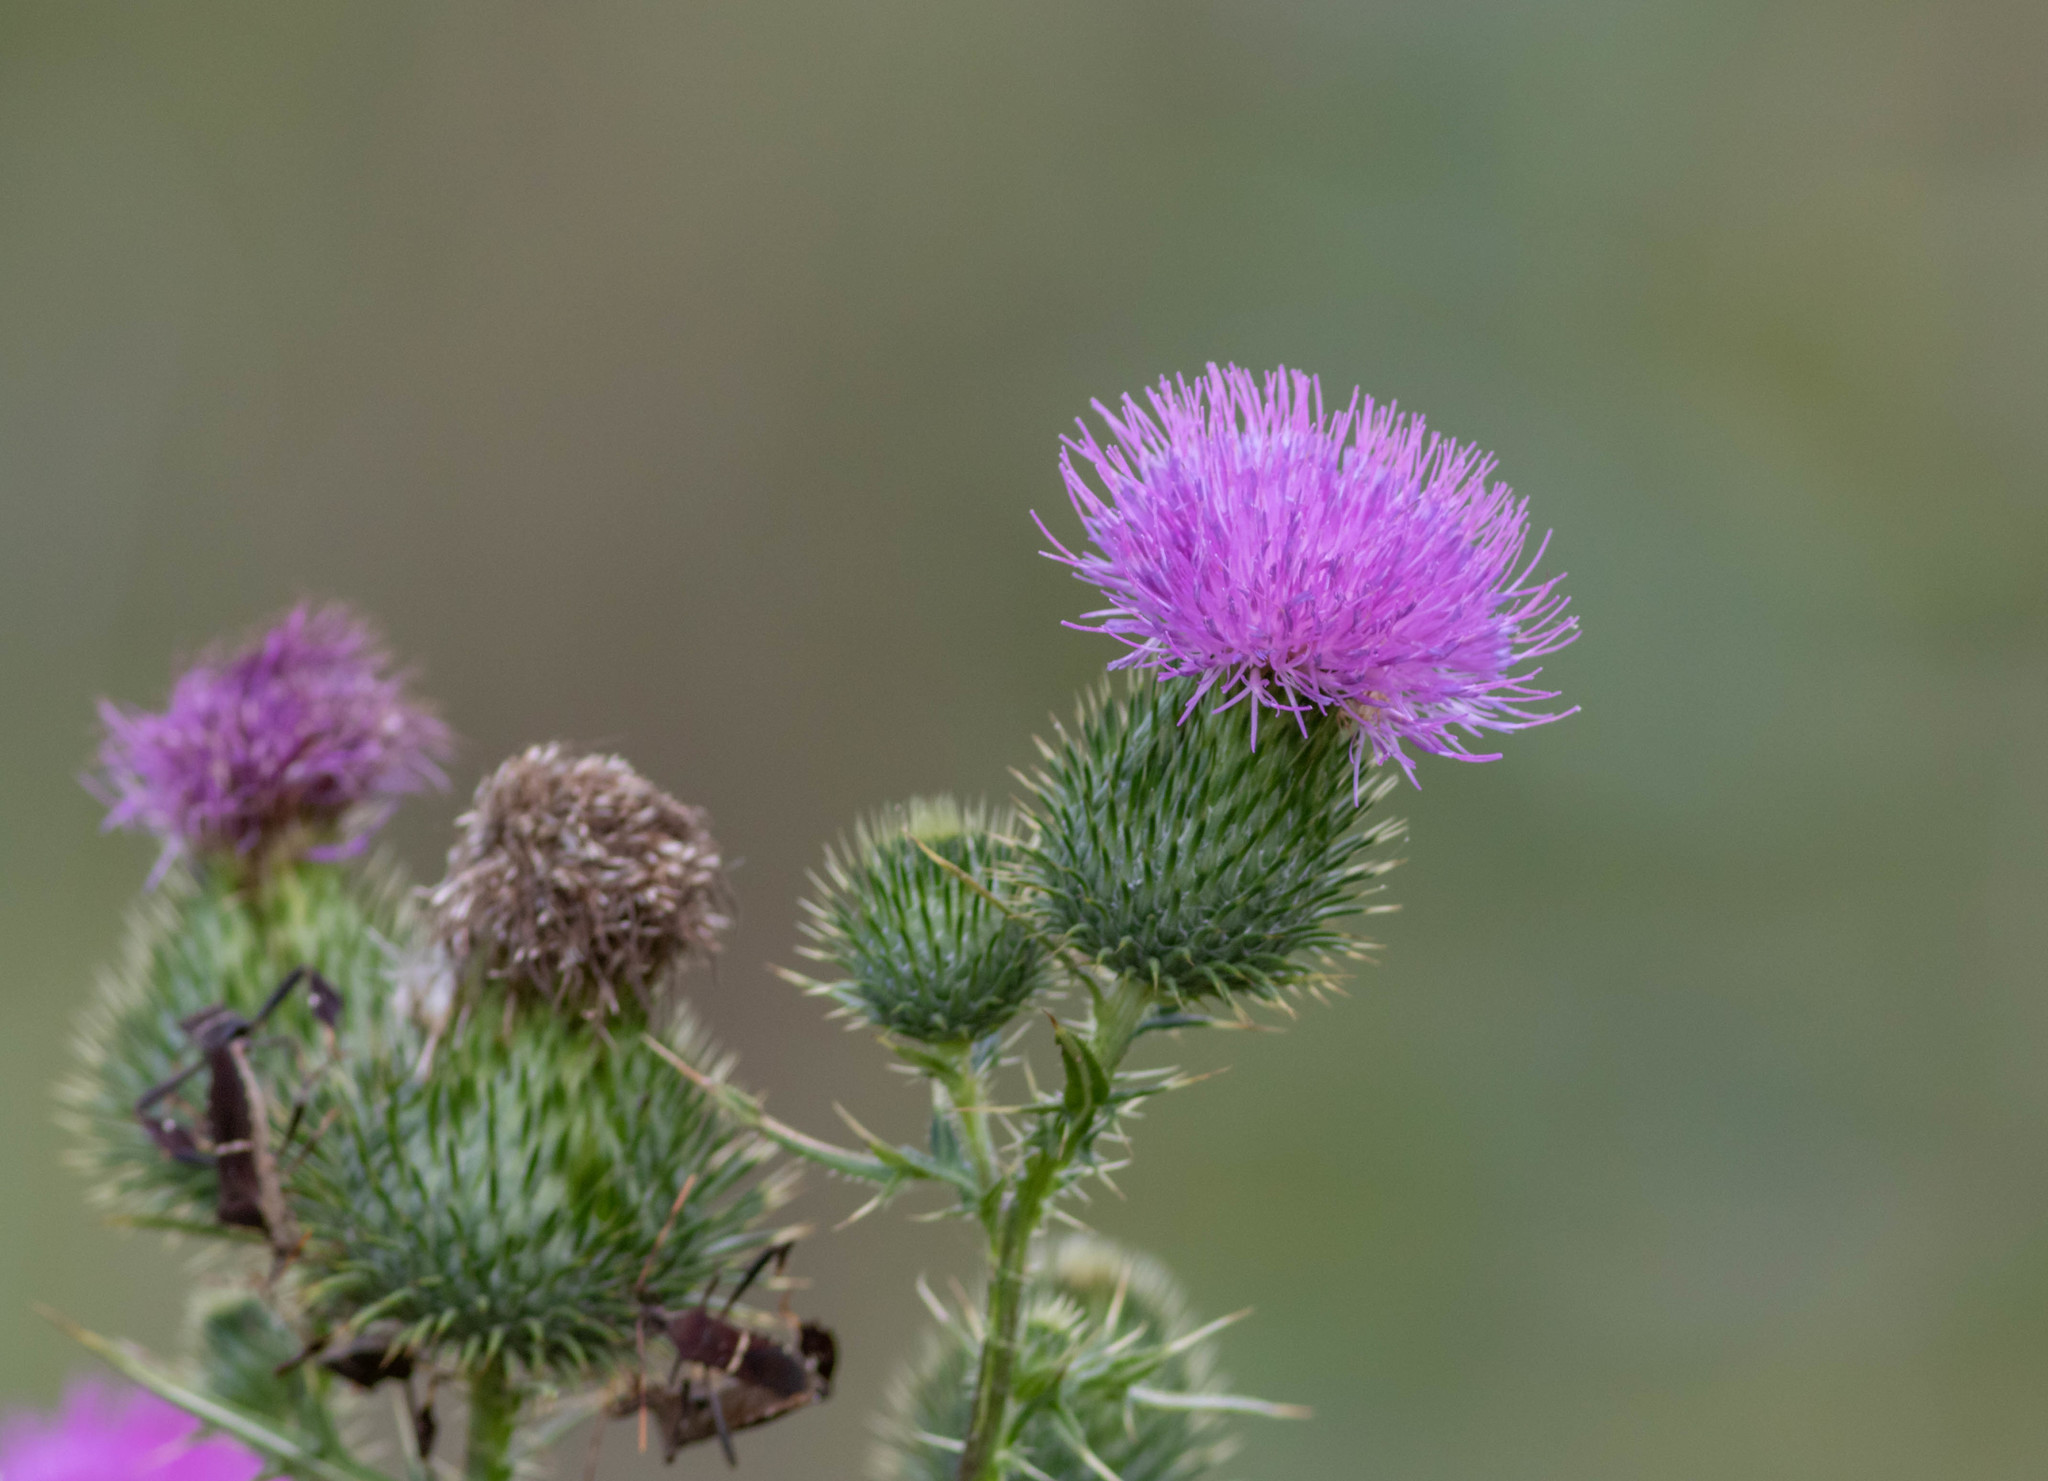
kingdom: Plantae
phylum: Tracheophyta
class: Magnoliopsida
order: Asterales
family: Asteraceae
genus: Cirsium
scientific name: Cirsium vulgare
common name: Bull thistle
